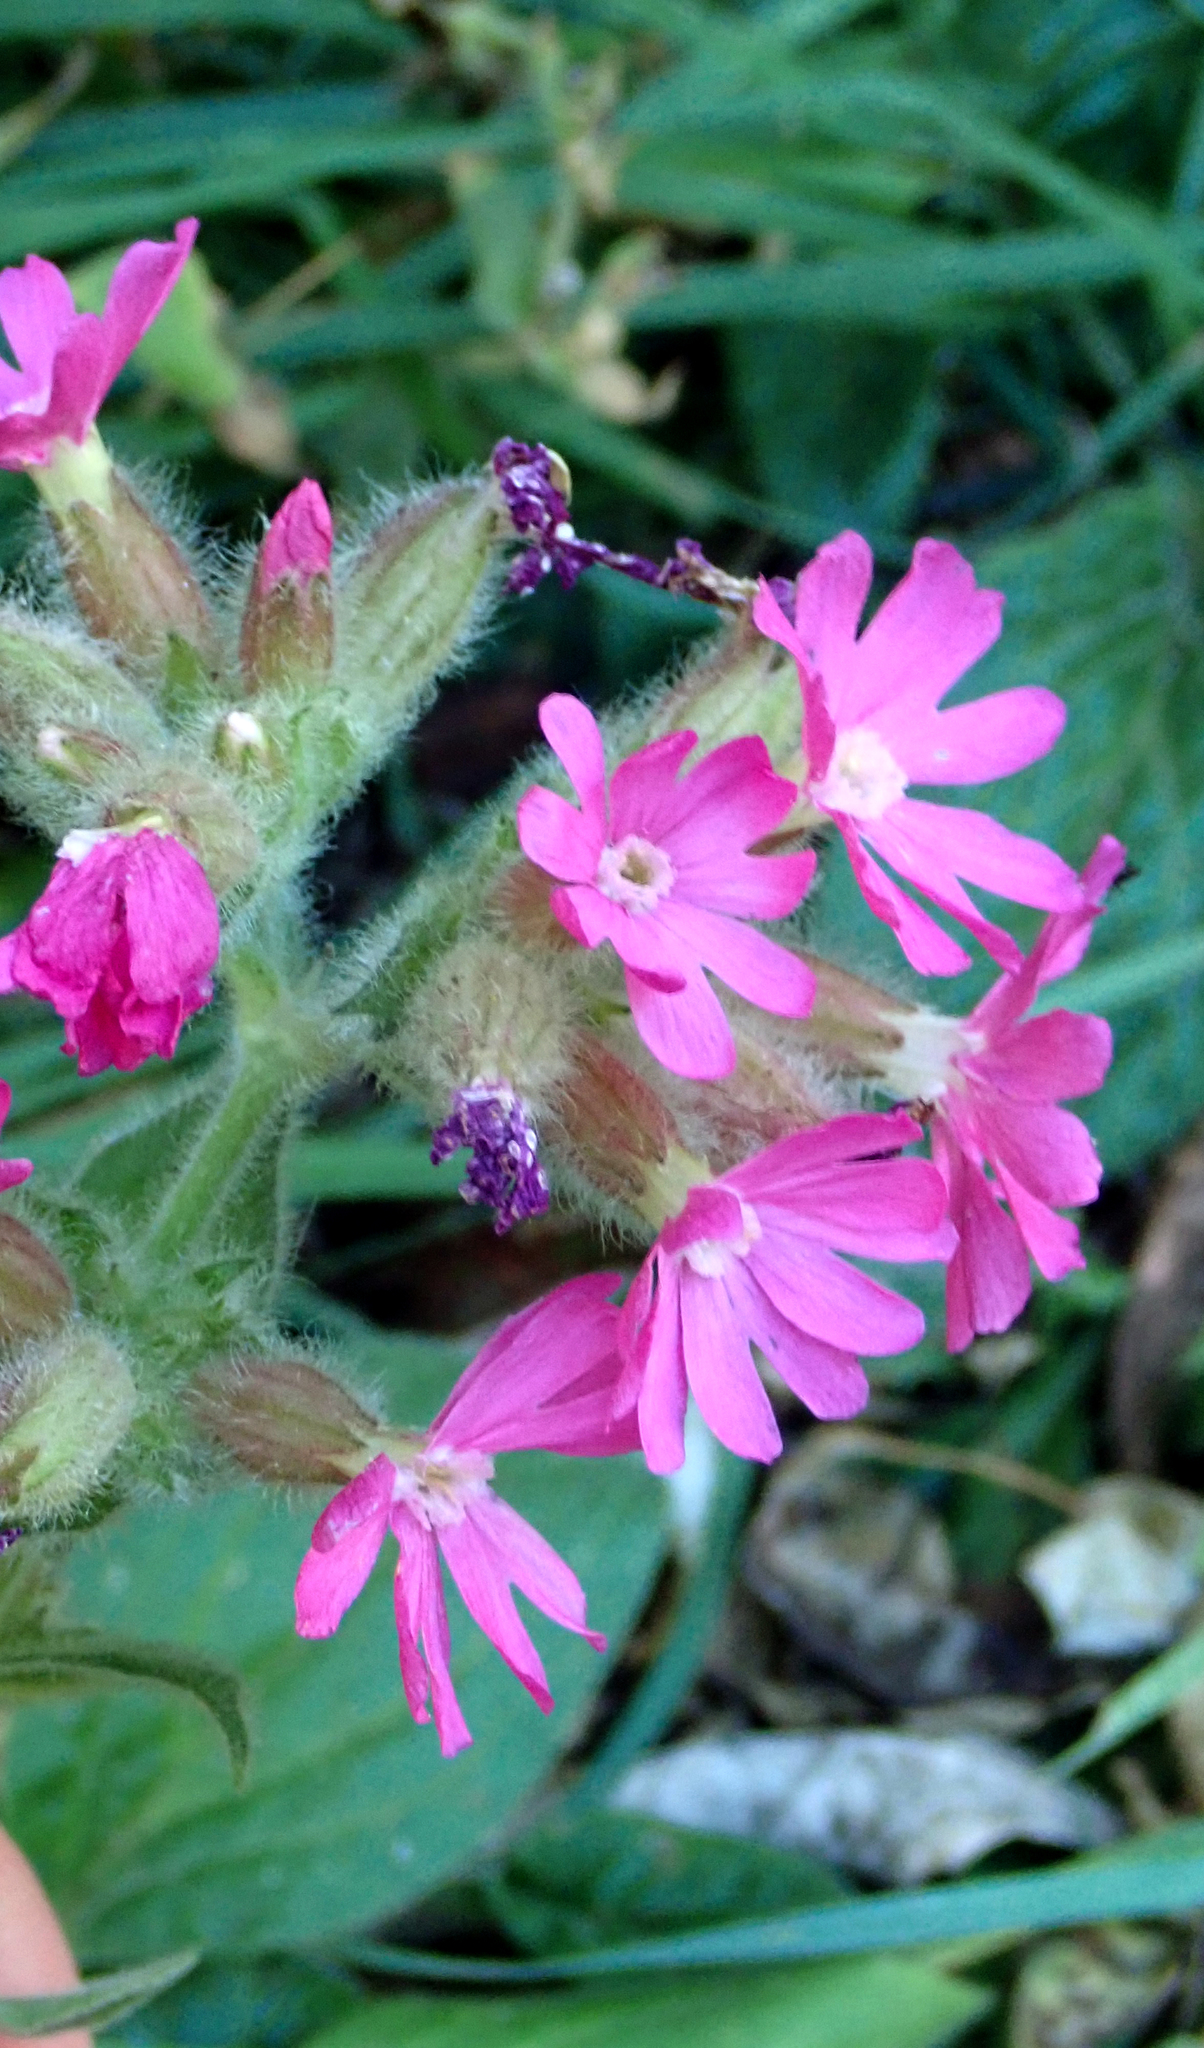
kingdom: Plantae
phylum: Tracheophyta
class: Magnoliopsida
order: Caryophyllales
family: Caryophyllaceae
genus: Silene
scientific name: Silene dioica
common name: Red campion
